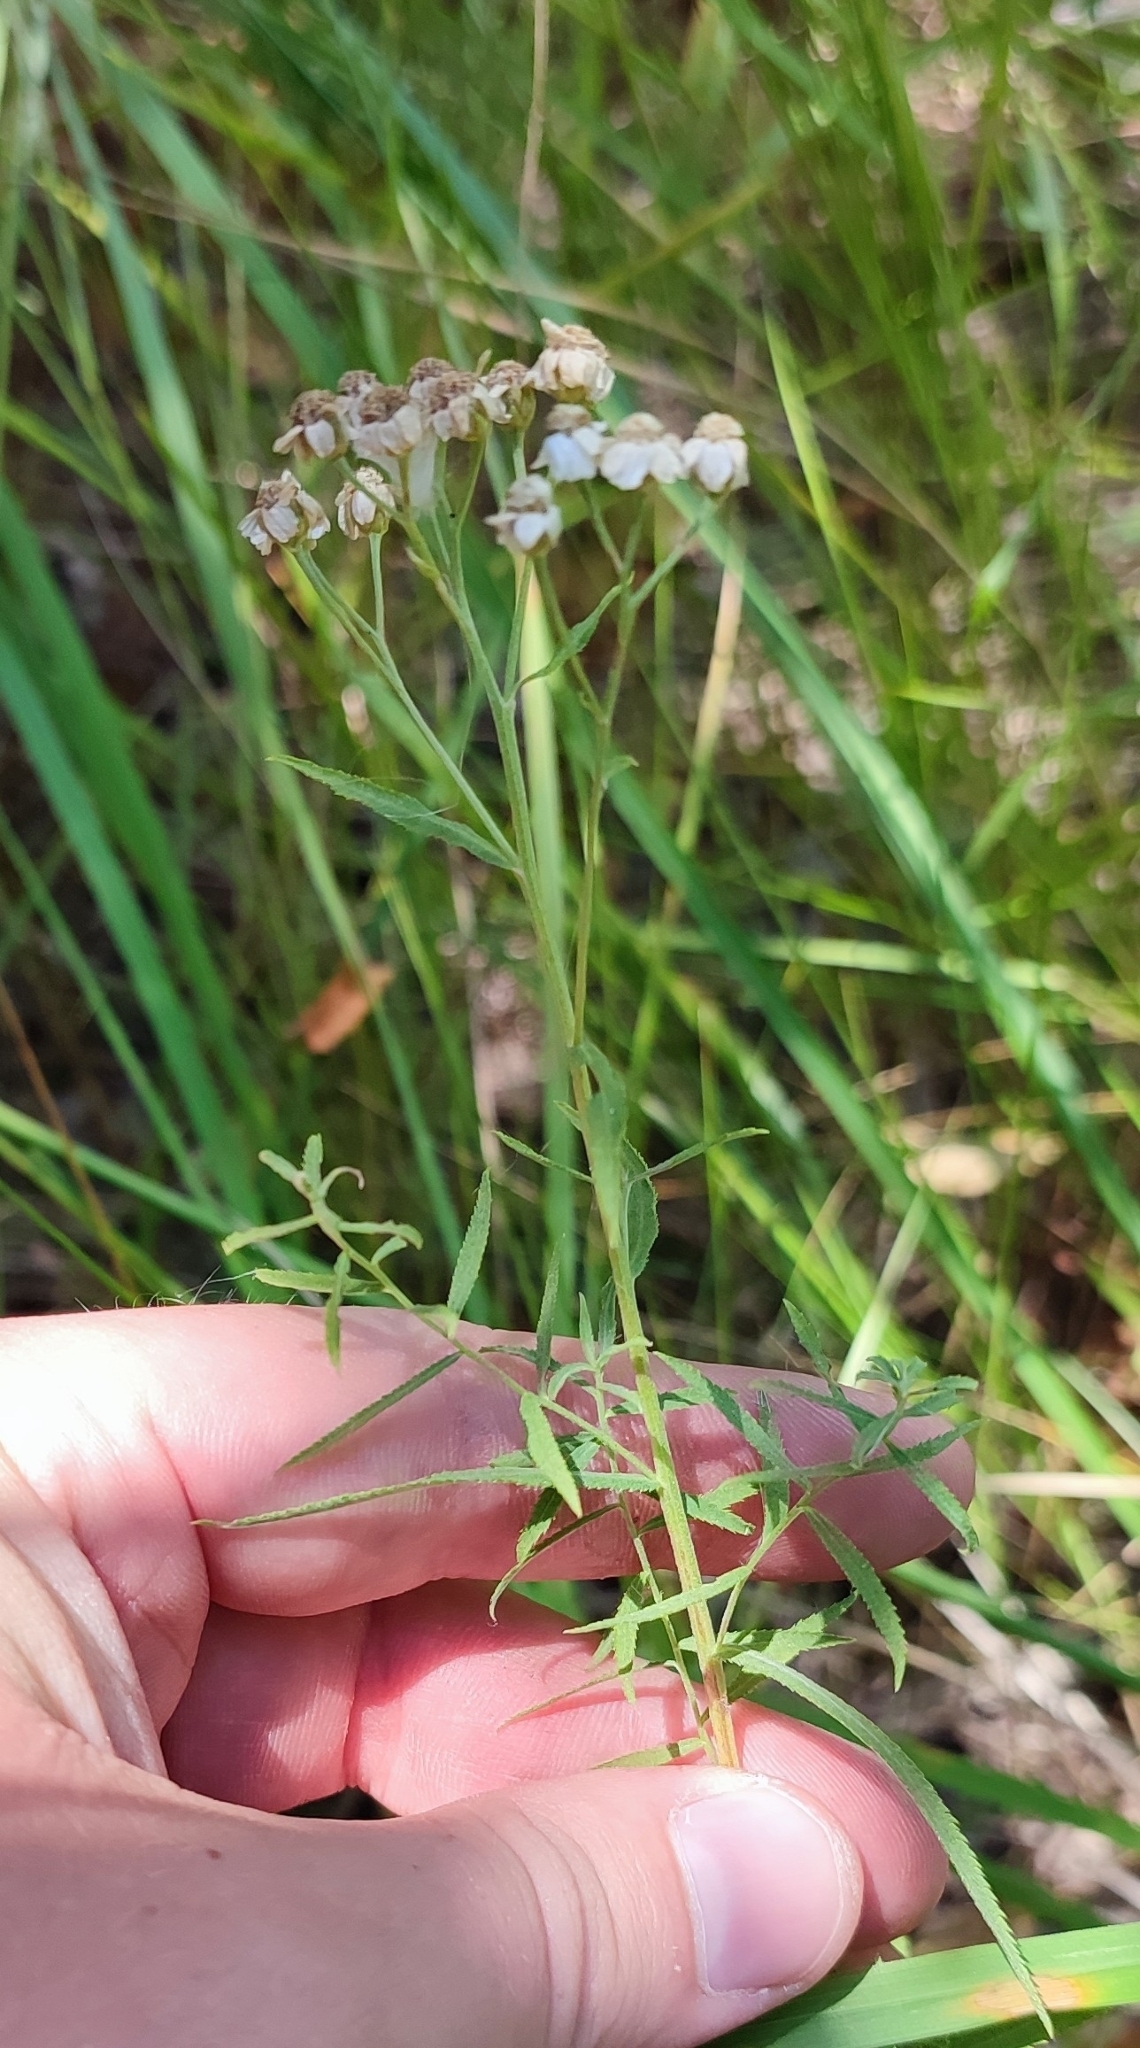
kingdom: Plantae
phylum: Tracheophyta
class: Magnoliopsida
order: Asterales
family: Asteraceae
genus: Achillea
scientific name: Achillea salicifolia
